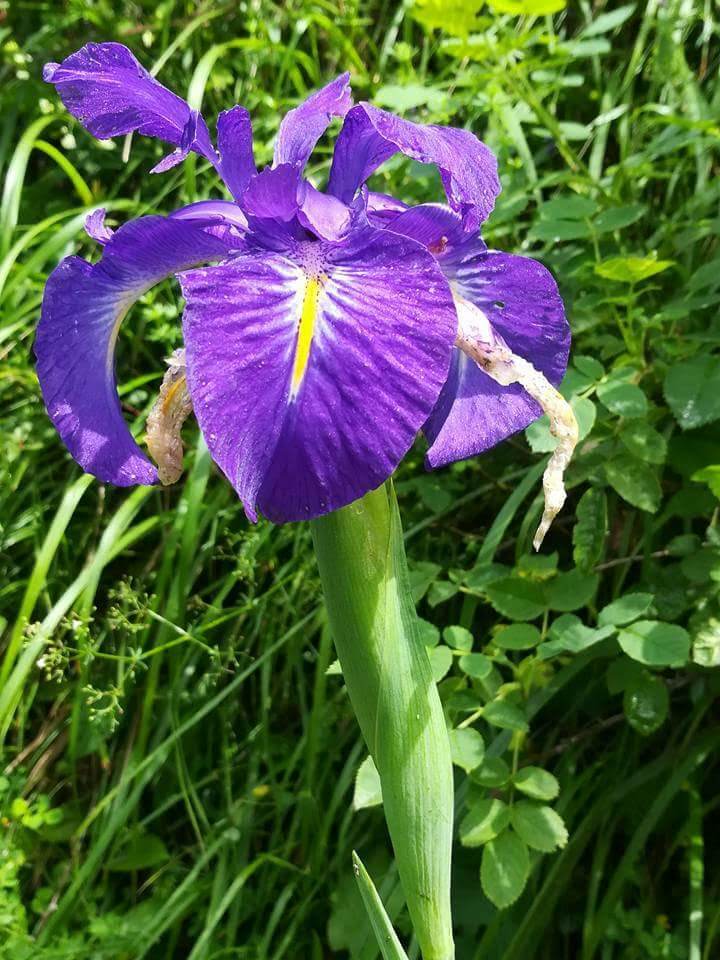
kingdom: Plantae
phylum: Tracheophyta
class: Liliopsida
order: Asparagales
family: Iridaceae
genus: Iris
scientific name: Iris
